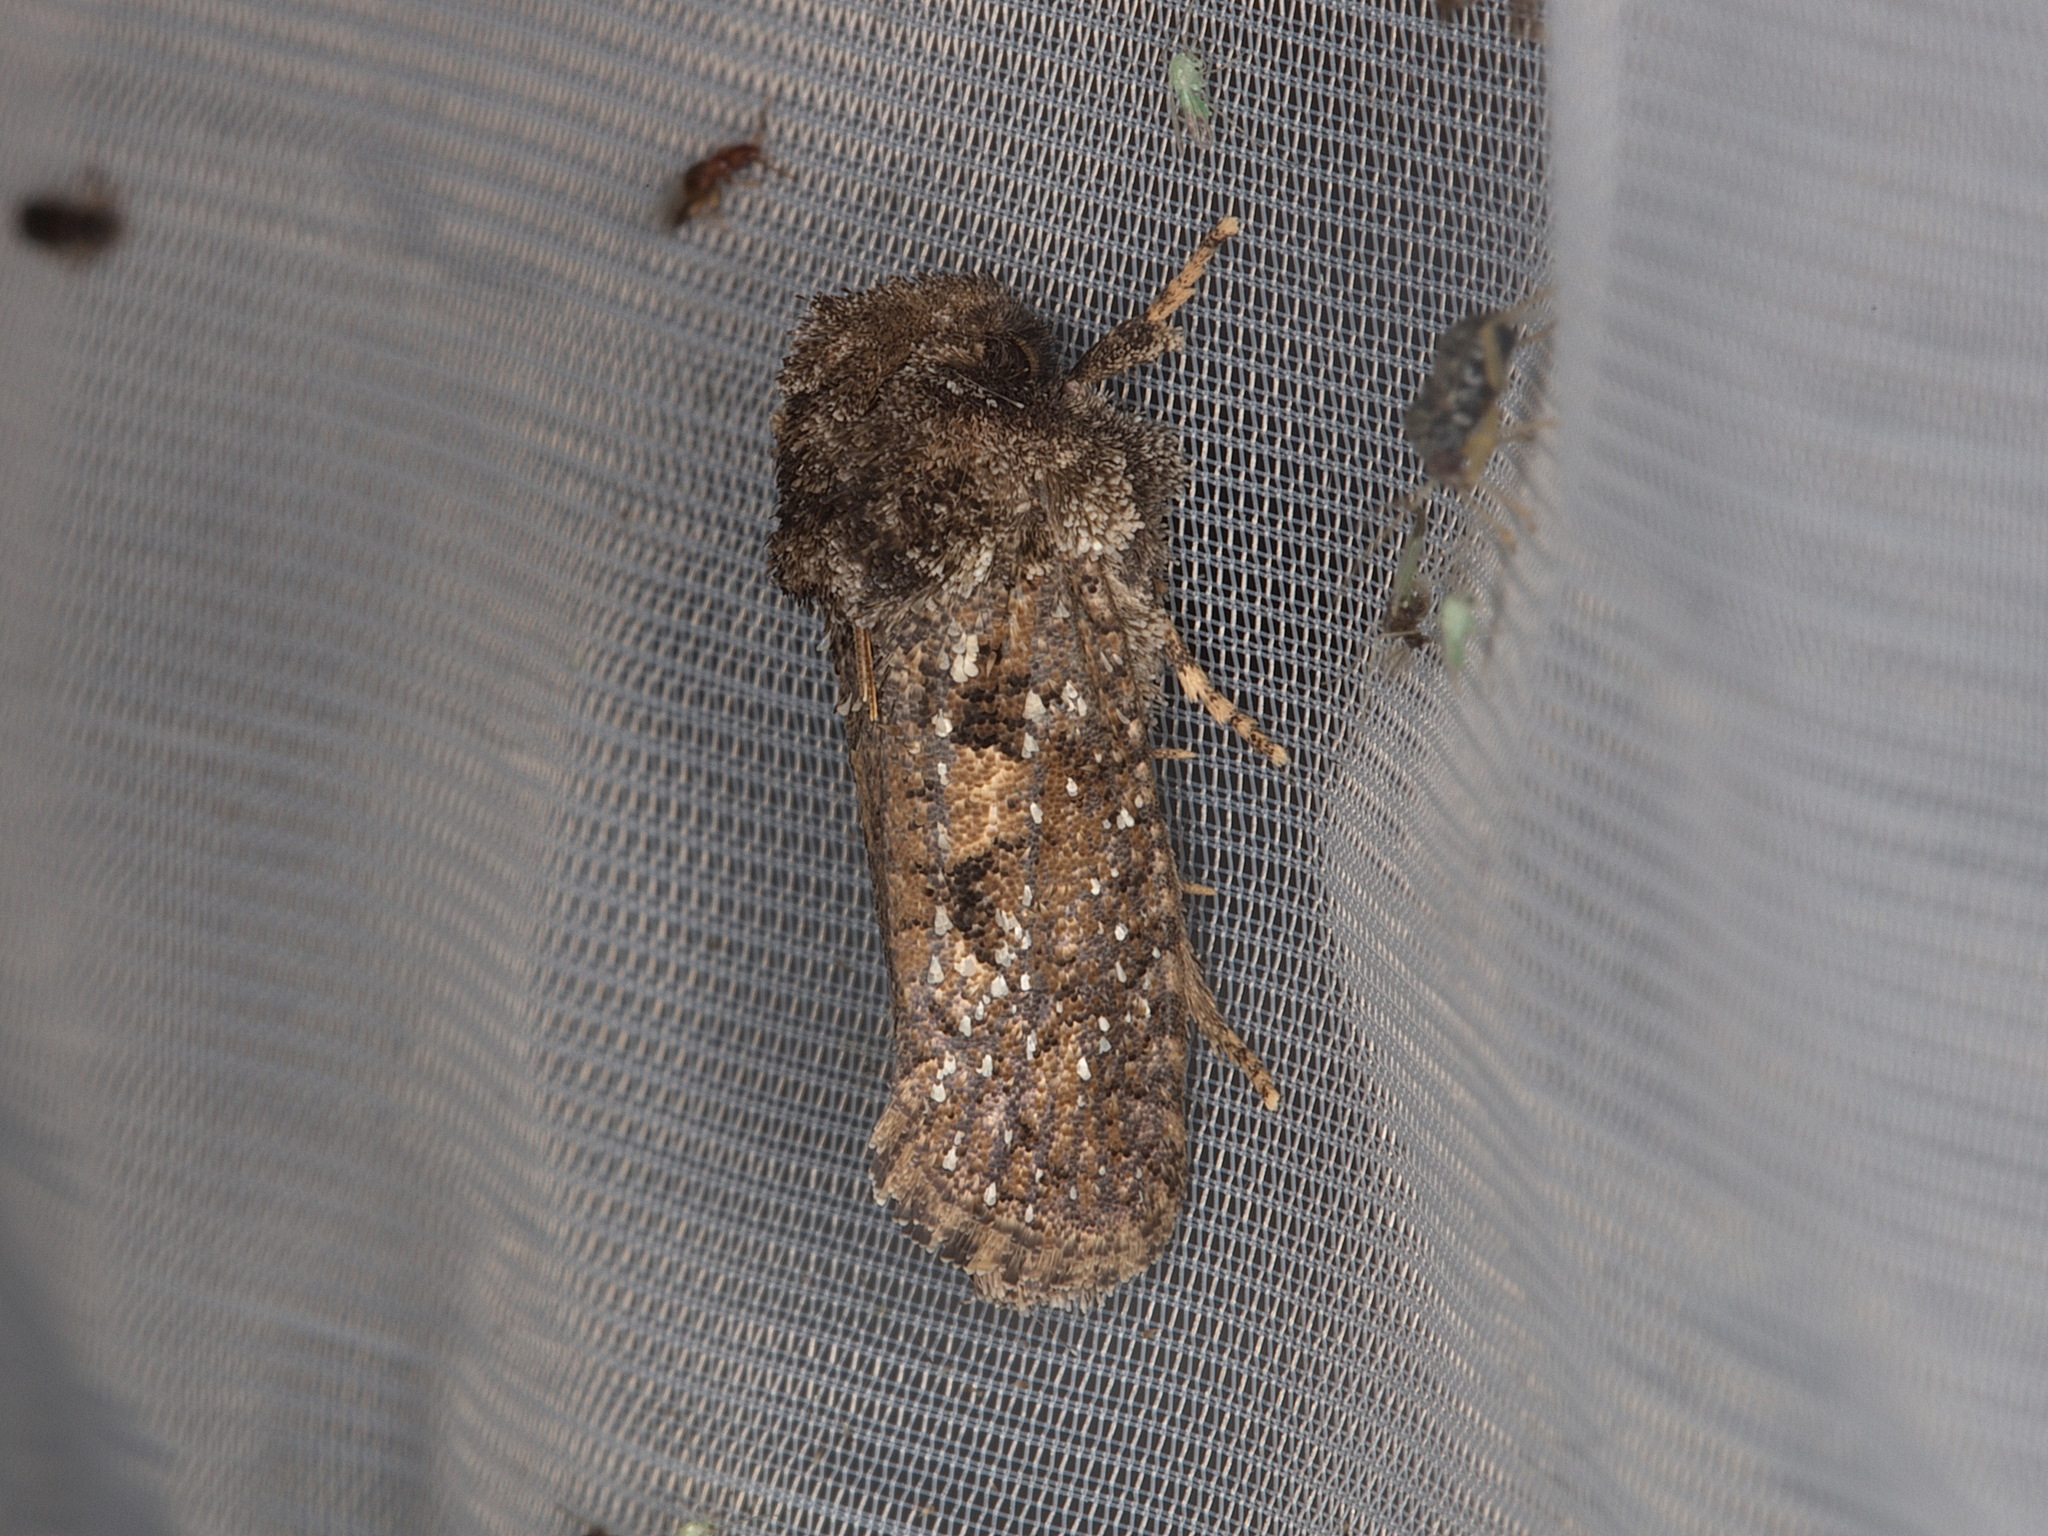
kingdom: Animalia
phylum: Arthropoda
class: Insecta
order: Lepidoptera
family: Tineidae
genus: Acrolophus
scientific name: Acrolophus arcanella
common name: Arcane grass tubeworm moth
